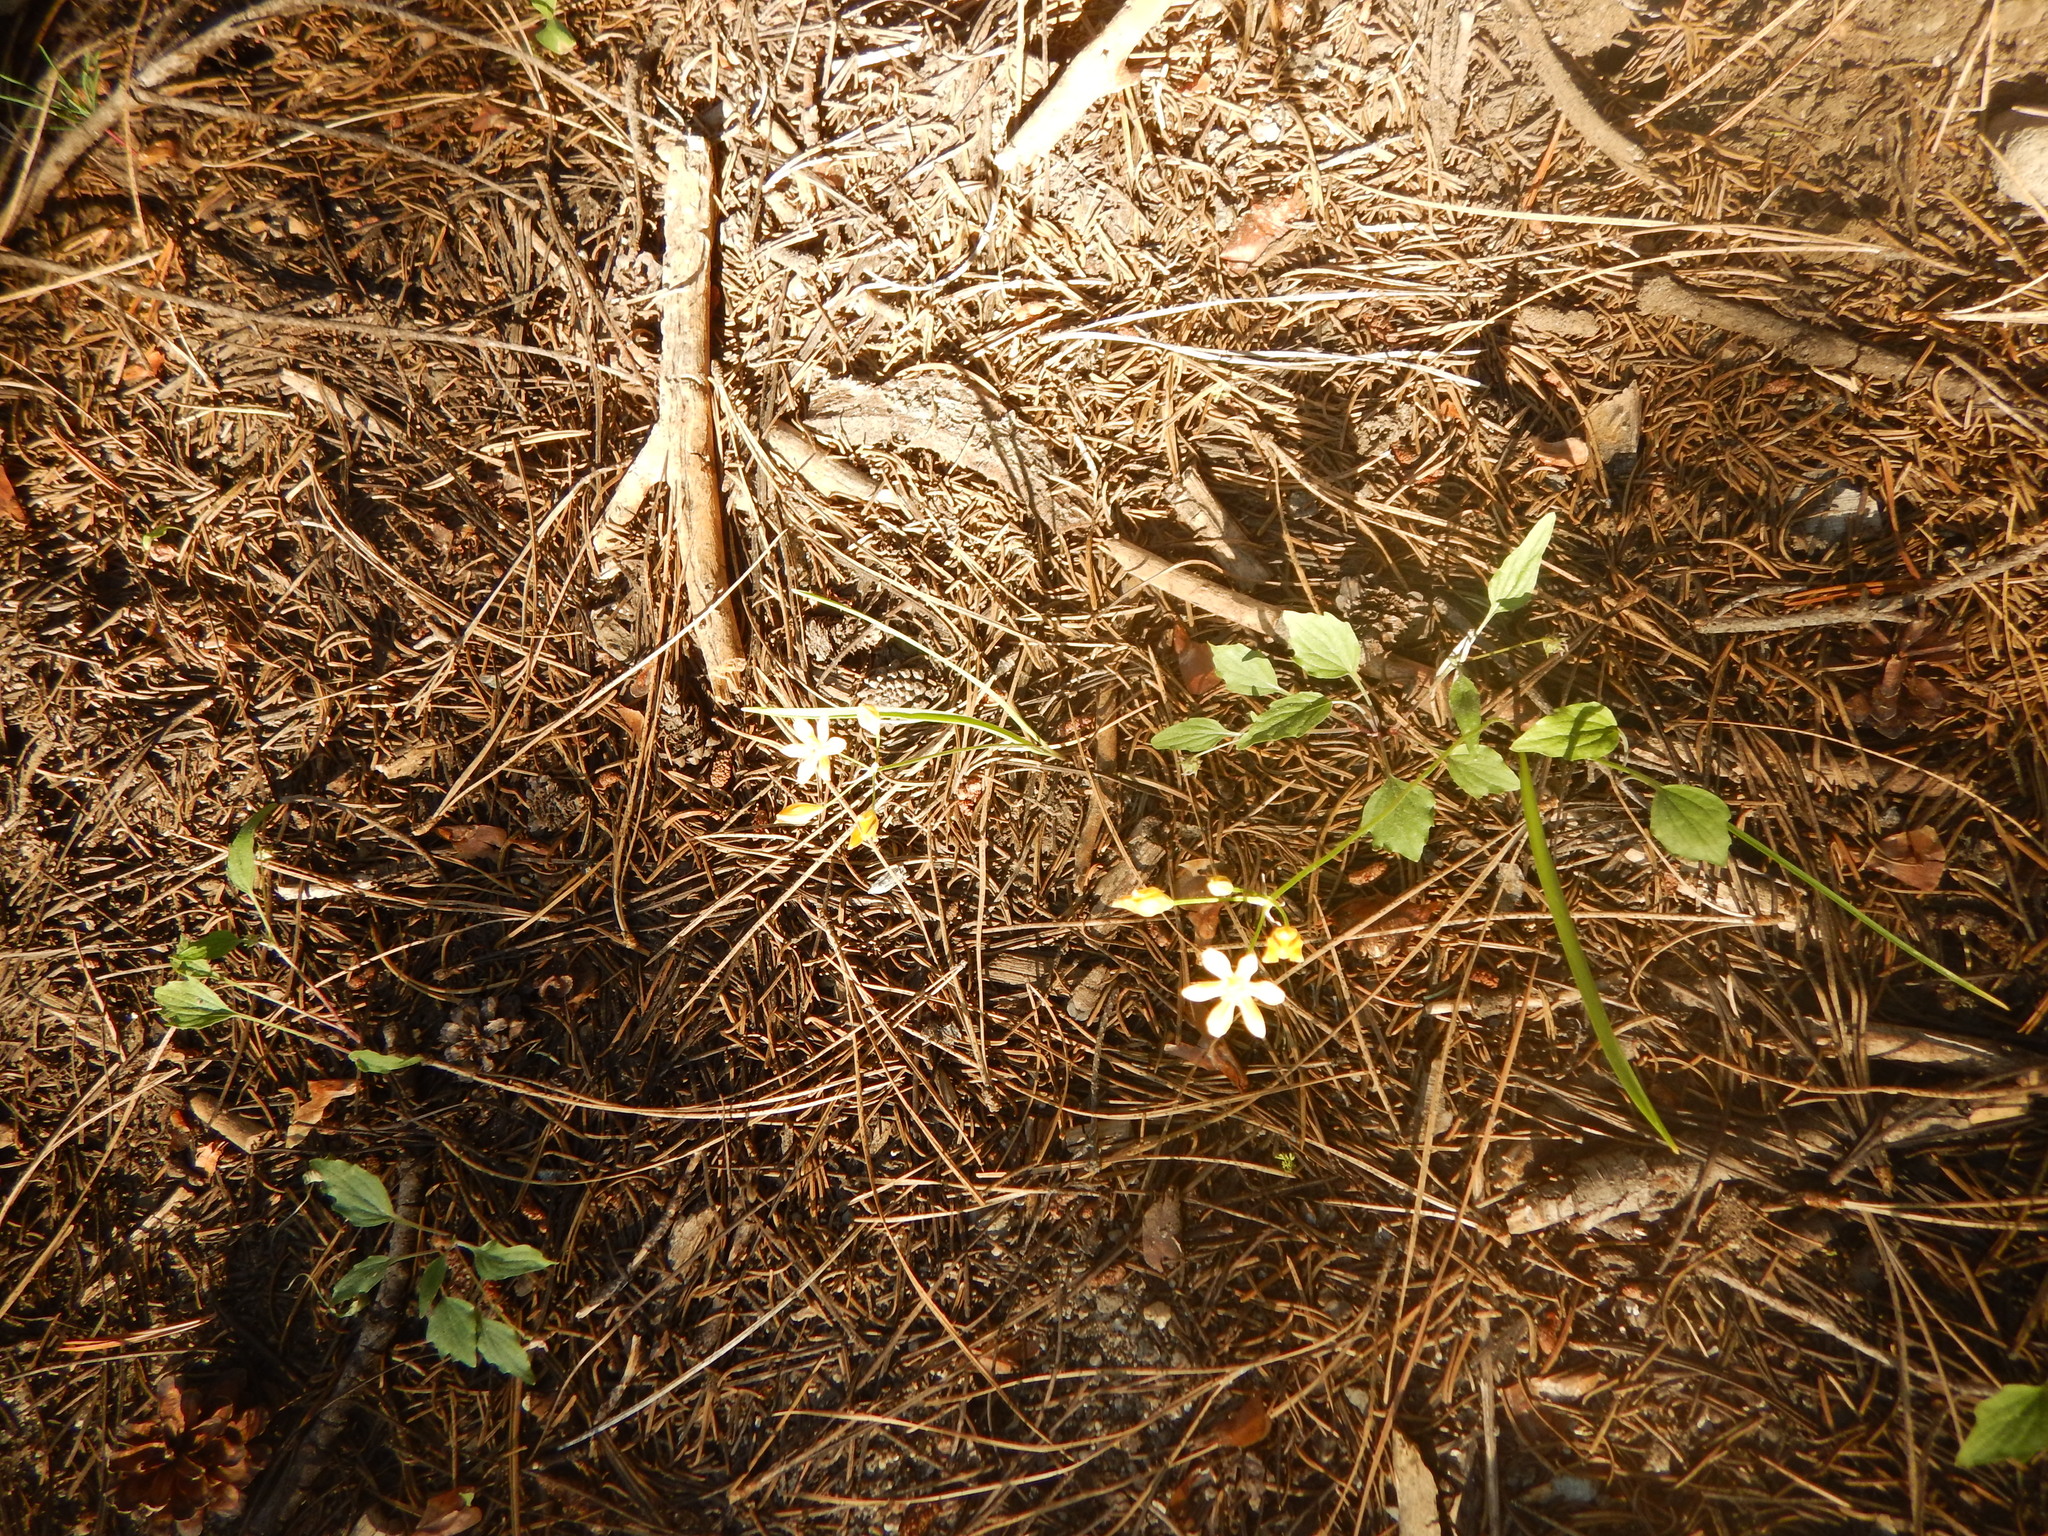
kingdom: Plantae
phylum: Tracheophyta
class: Liliopsida
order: Asparagales
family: Asparagaceae
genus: Triteleia
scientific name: Triteleia ixioides
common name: Yellow-brodiaea
